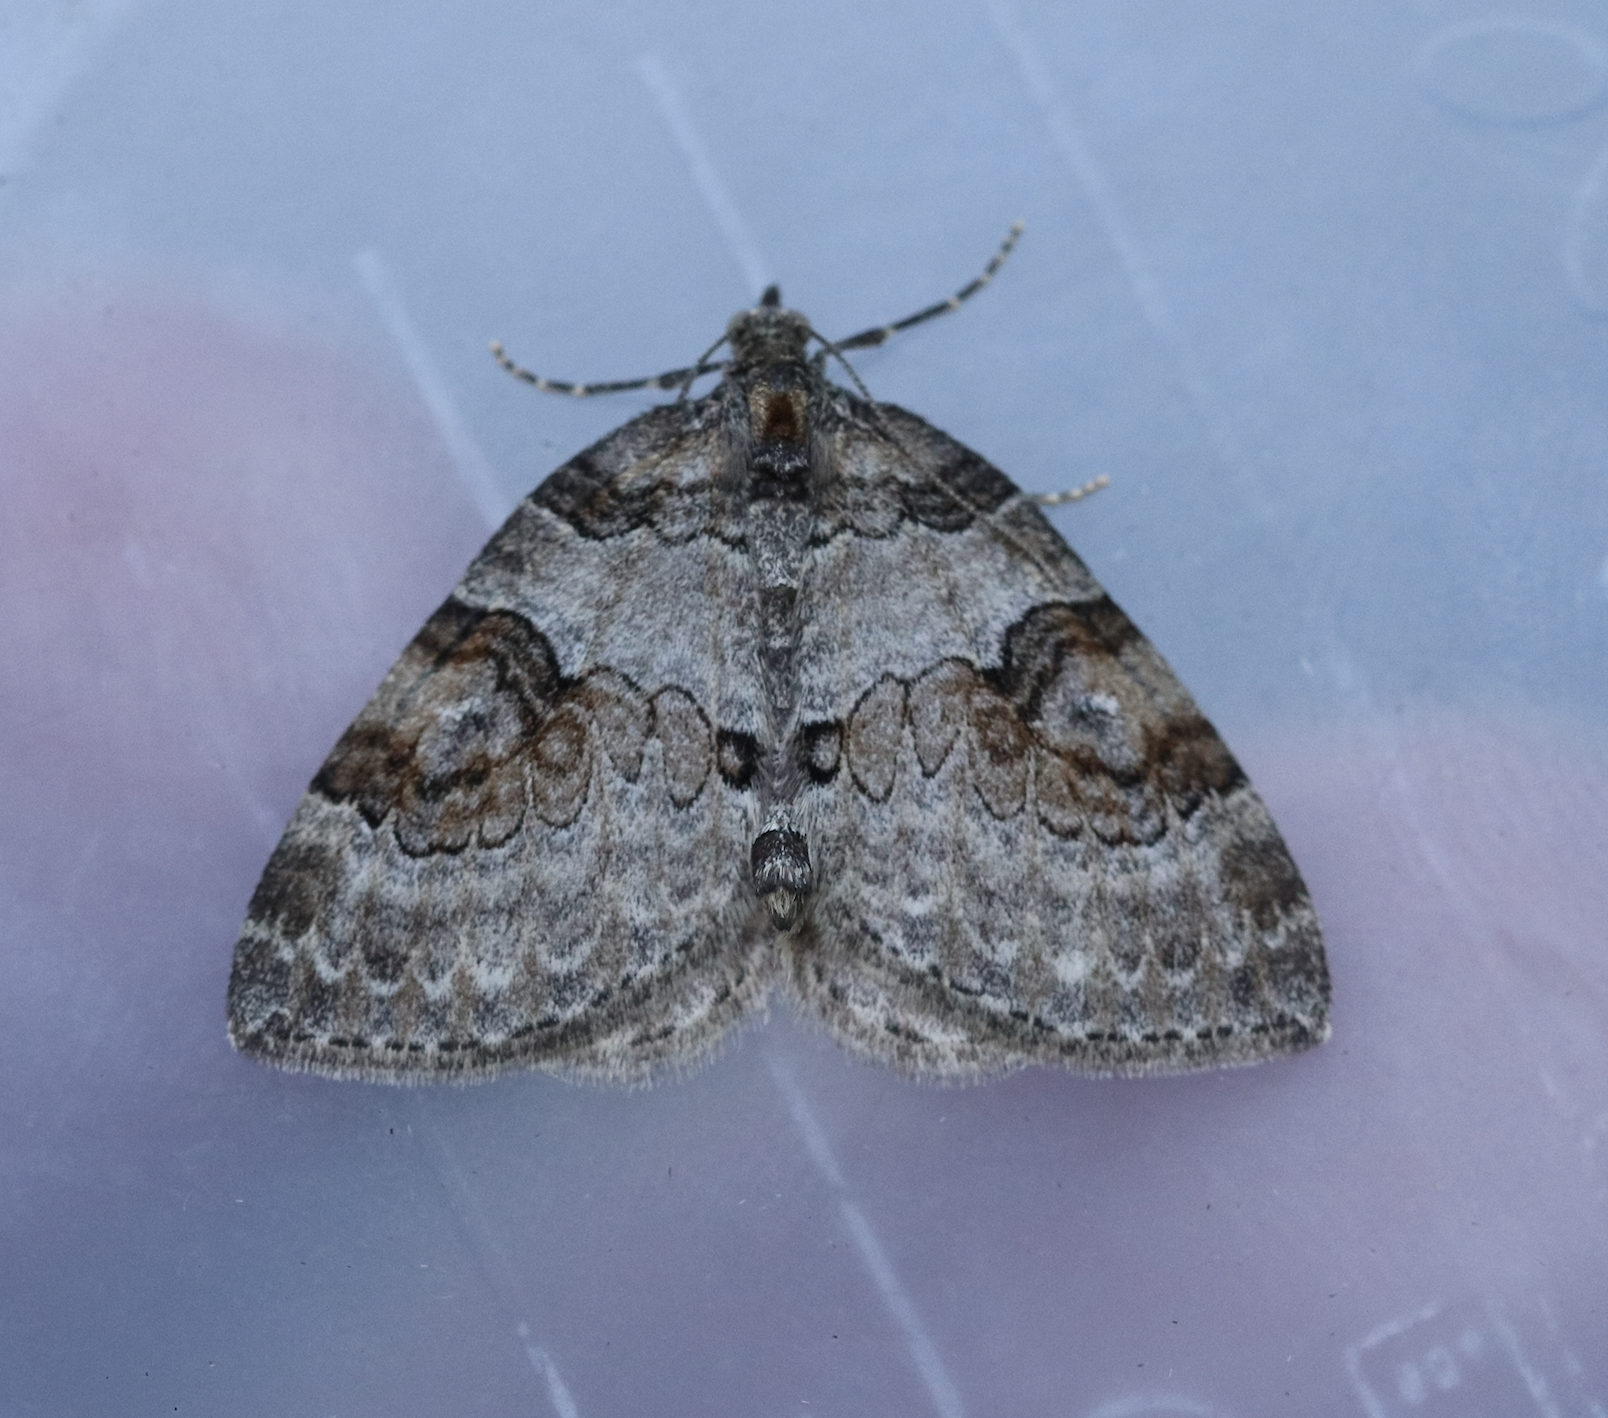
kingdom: Animalia
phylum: Arthropoda
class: Insecta
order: Lepidoptera
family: Geometridae
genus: Plemyria
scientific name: Plemyria georgii
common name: George's carpet moth
